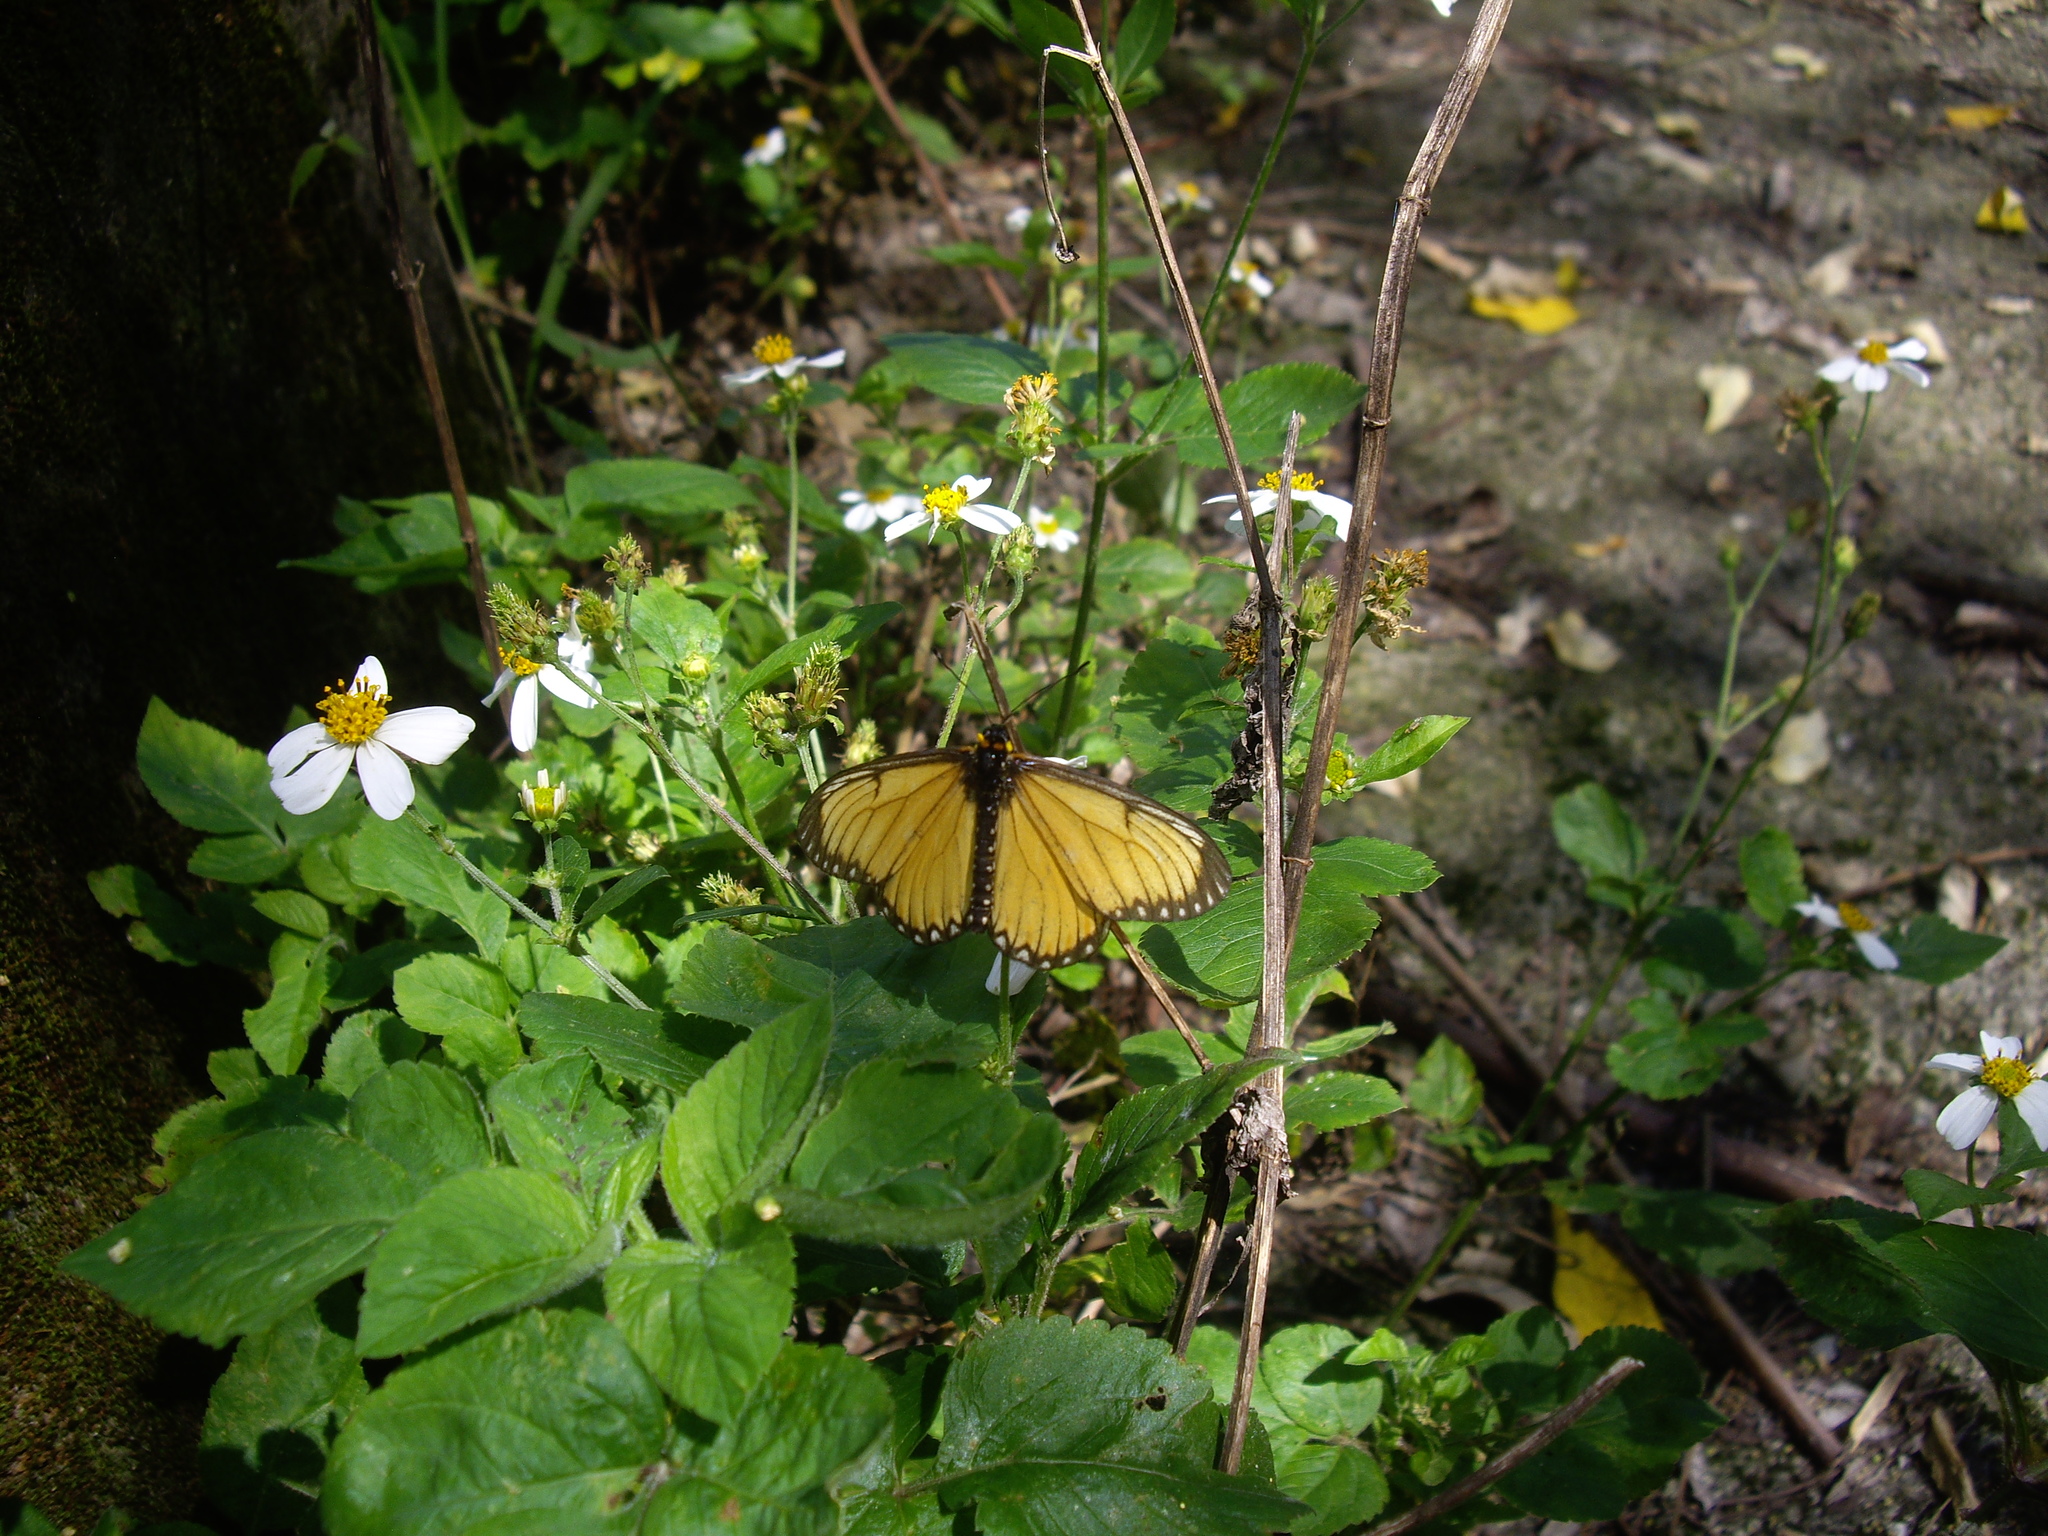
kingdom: Animalia
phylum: Arthropoda
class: Insecta
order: Lepidoptera
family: Nymphalidae
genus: Acraea
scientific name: Acraea Telchinia issoria
